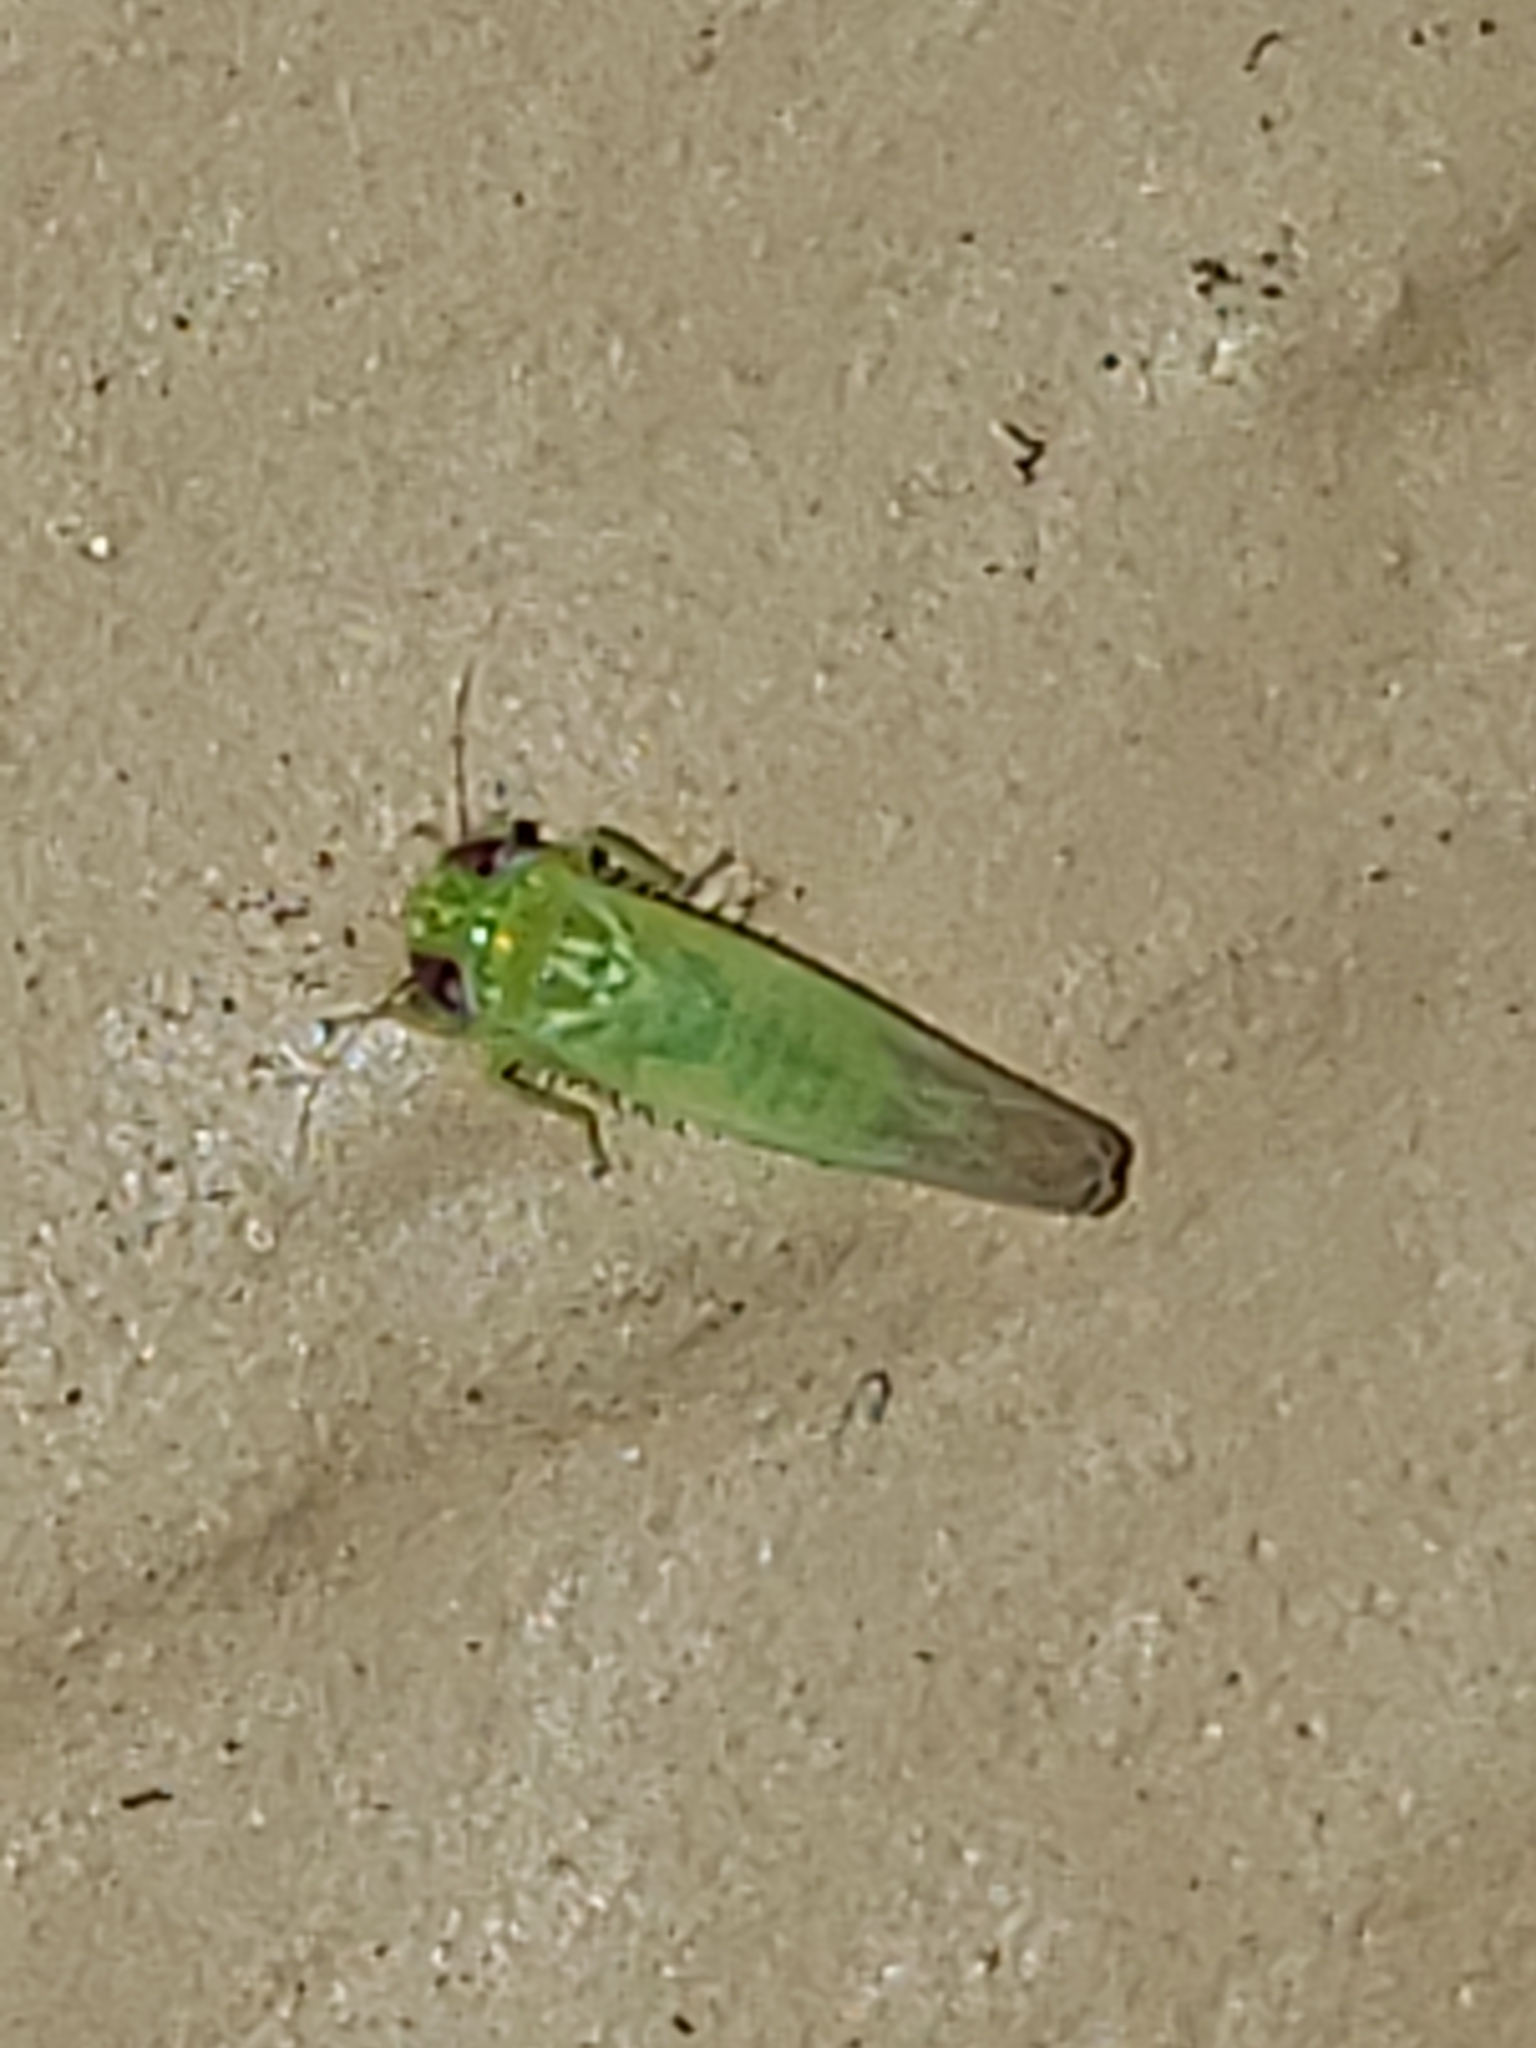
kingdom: Animalia
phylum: Arthropoda
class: Insecta
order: Hemiptera
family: Cicadellidae
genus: Empoasca
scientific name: Empoasca fabae
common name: Potato leafhopper
